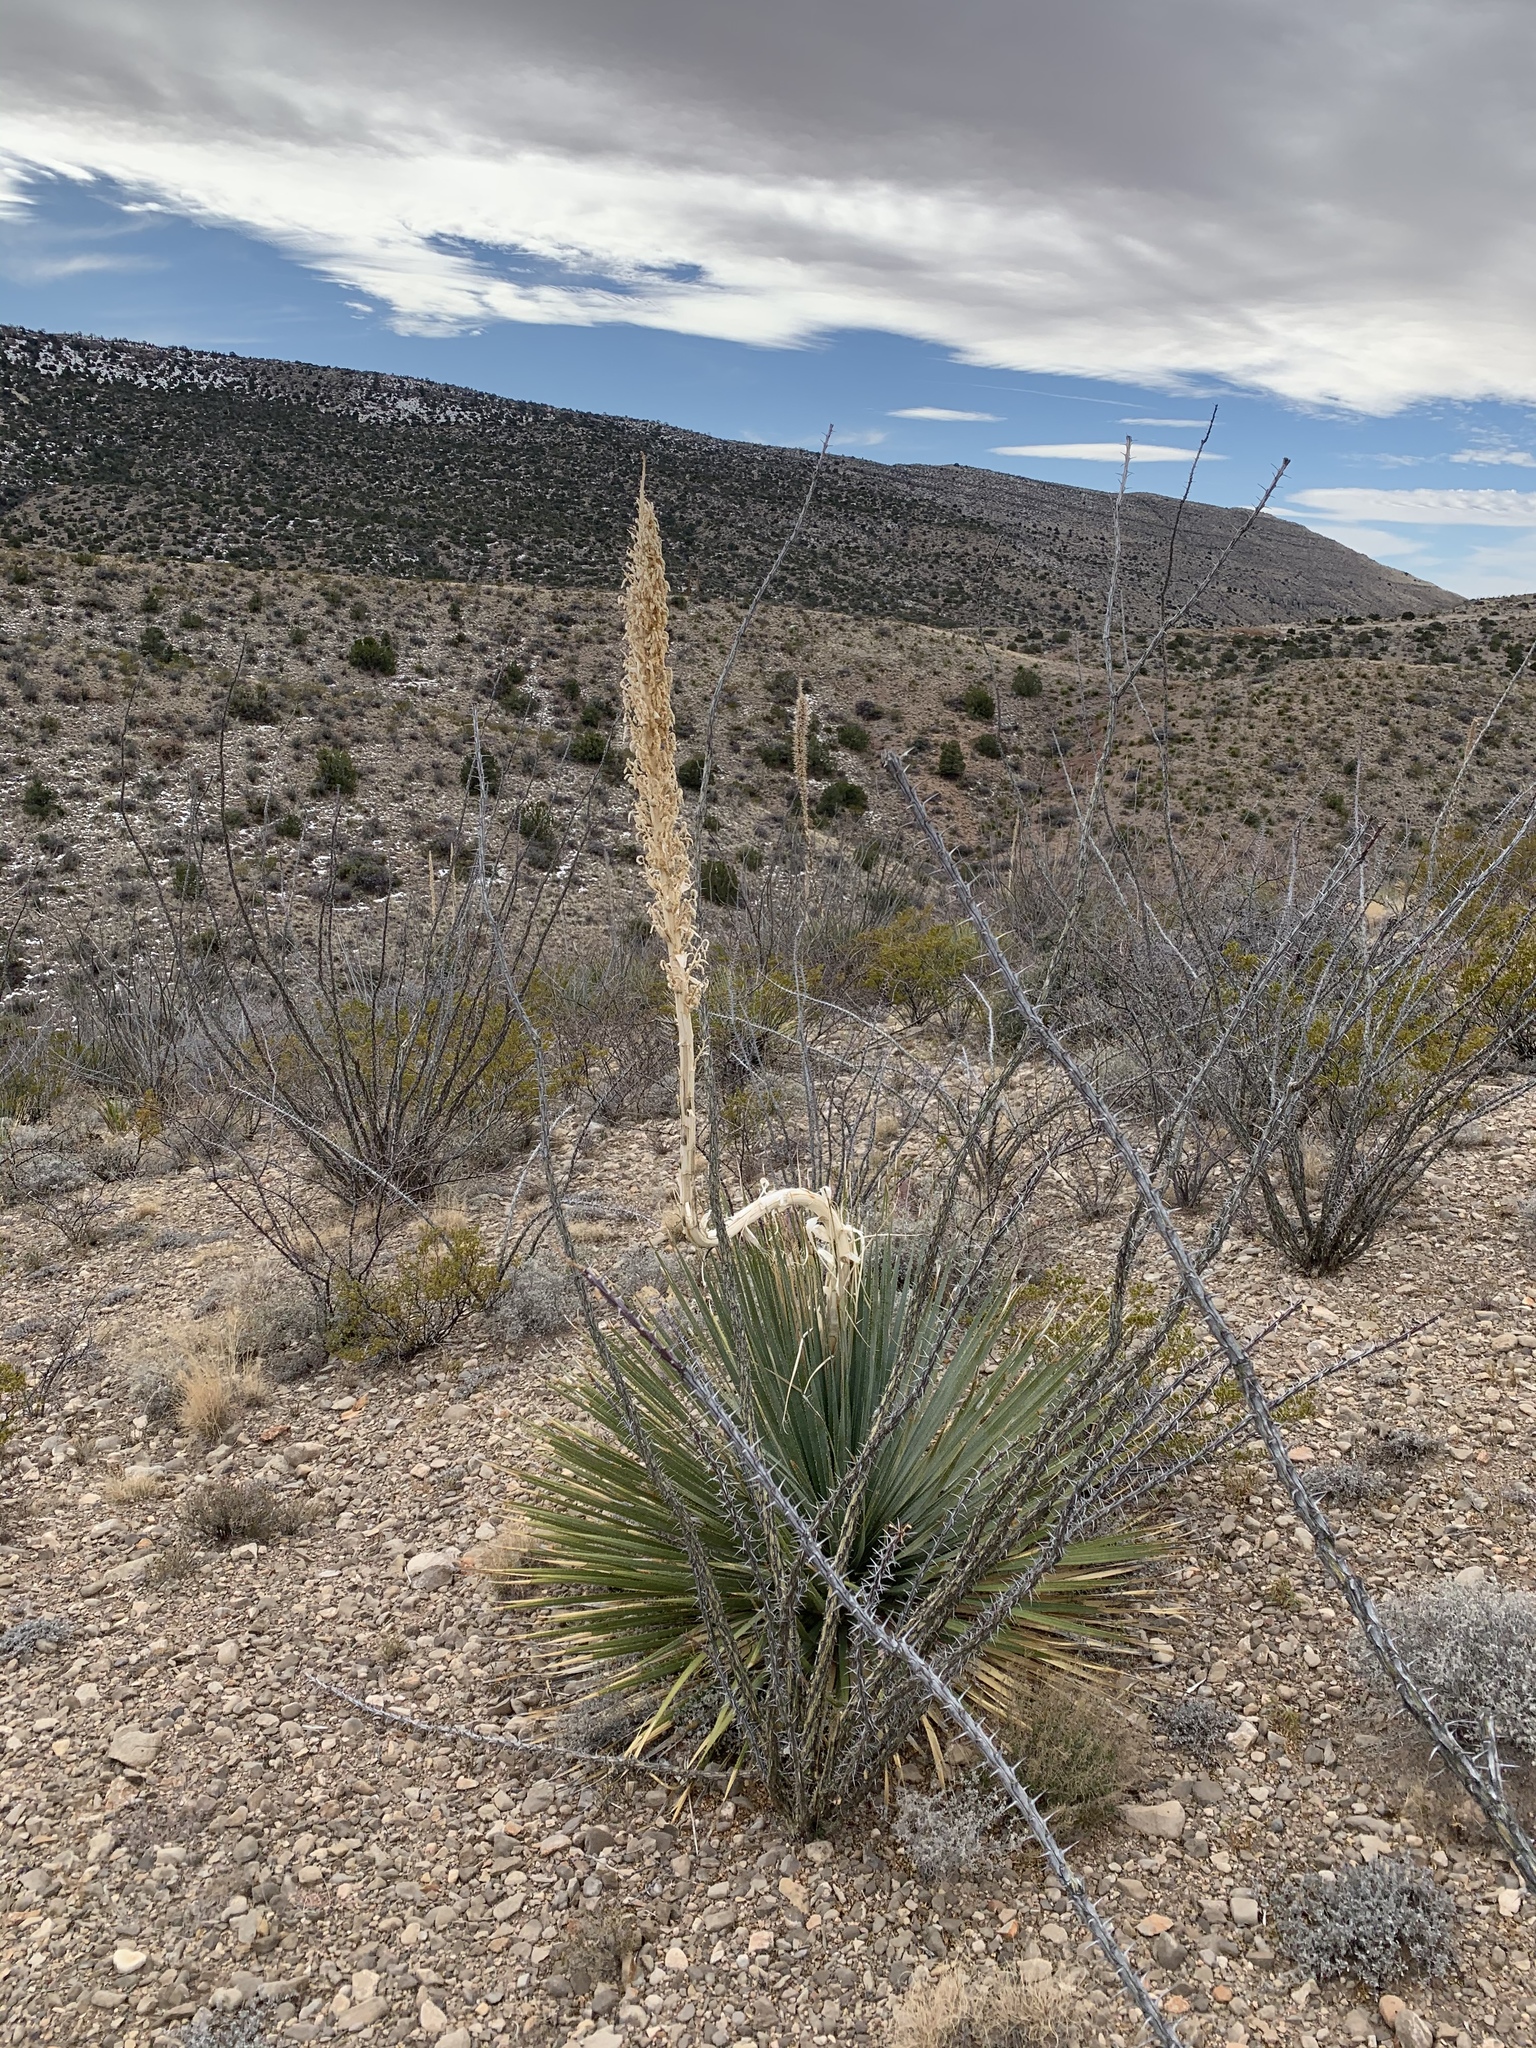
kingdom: Plantae
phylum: Tracheophyta
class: Liliopsida
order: Asparagales
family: Asparagaceae
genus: Dasylirion
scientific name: Dasylirion wheeleri
